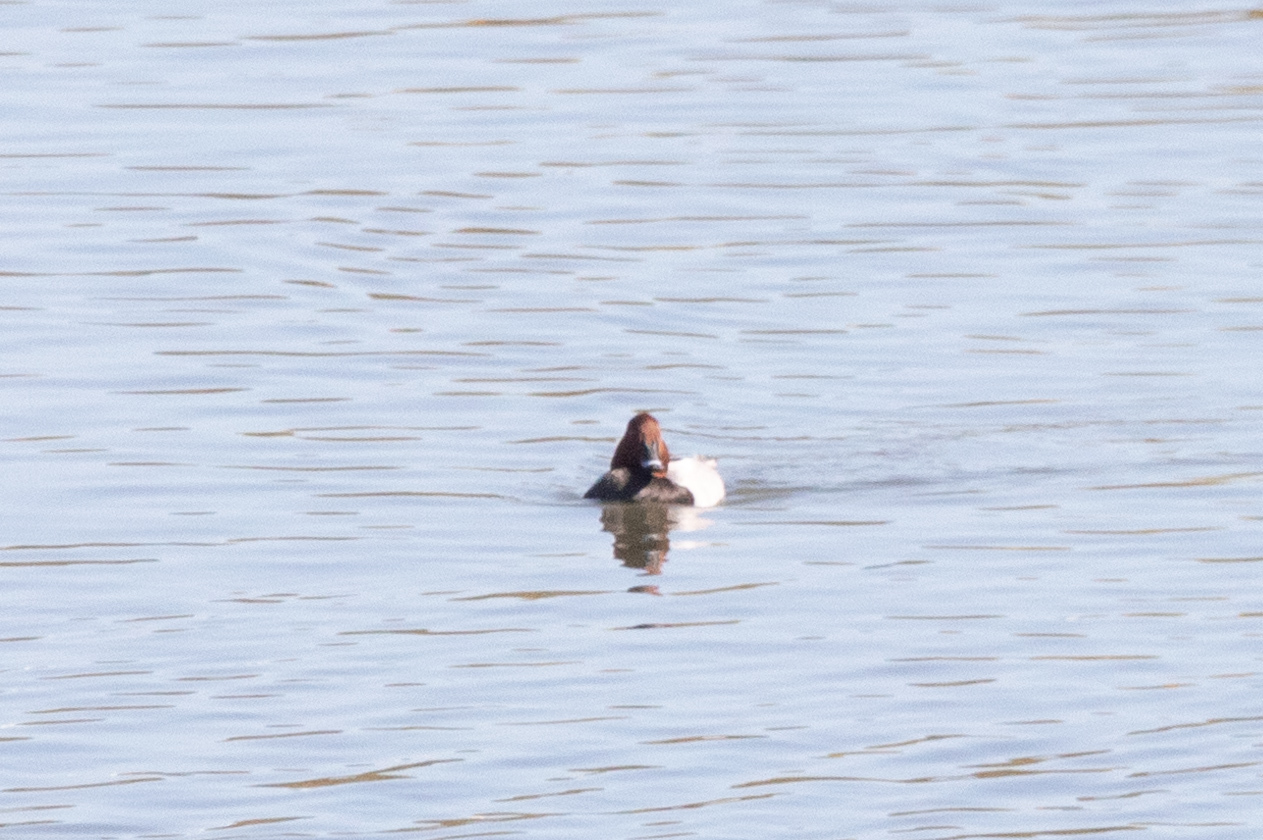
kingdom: Animalia
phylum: Chordata
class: Aves
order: Anseriformes
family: Anatidae
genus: Aythya
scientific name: Aythya ferina
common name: Common pochard
